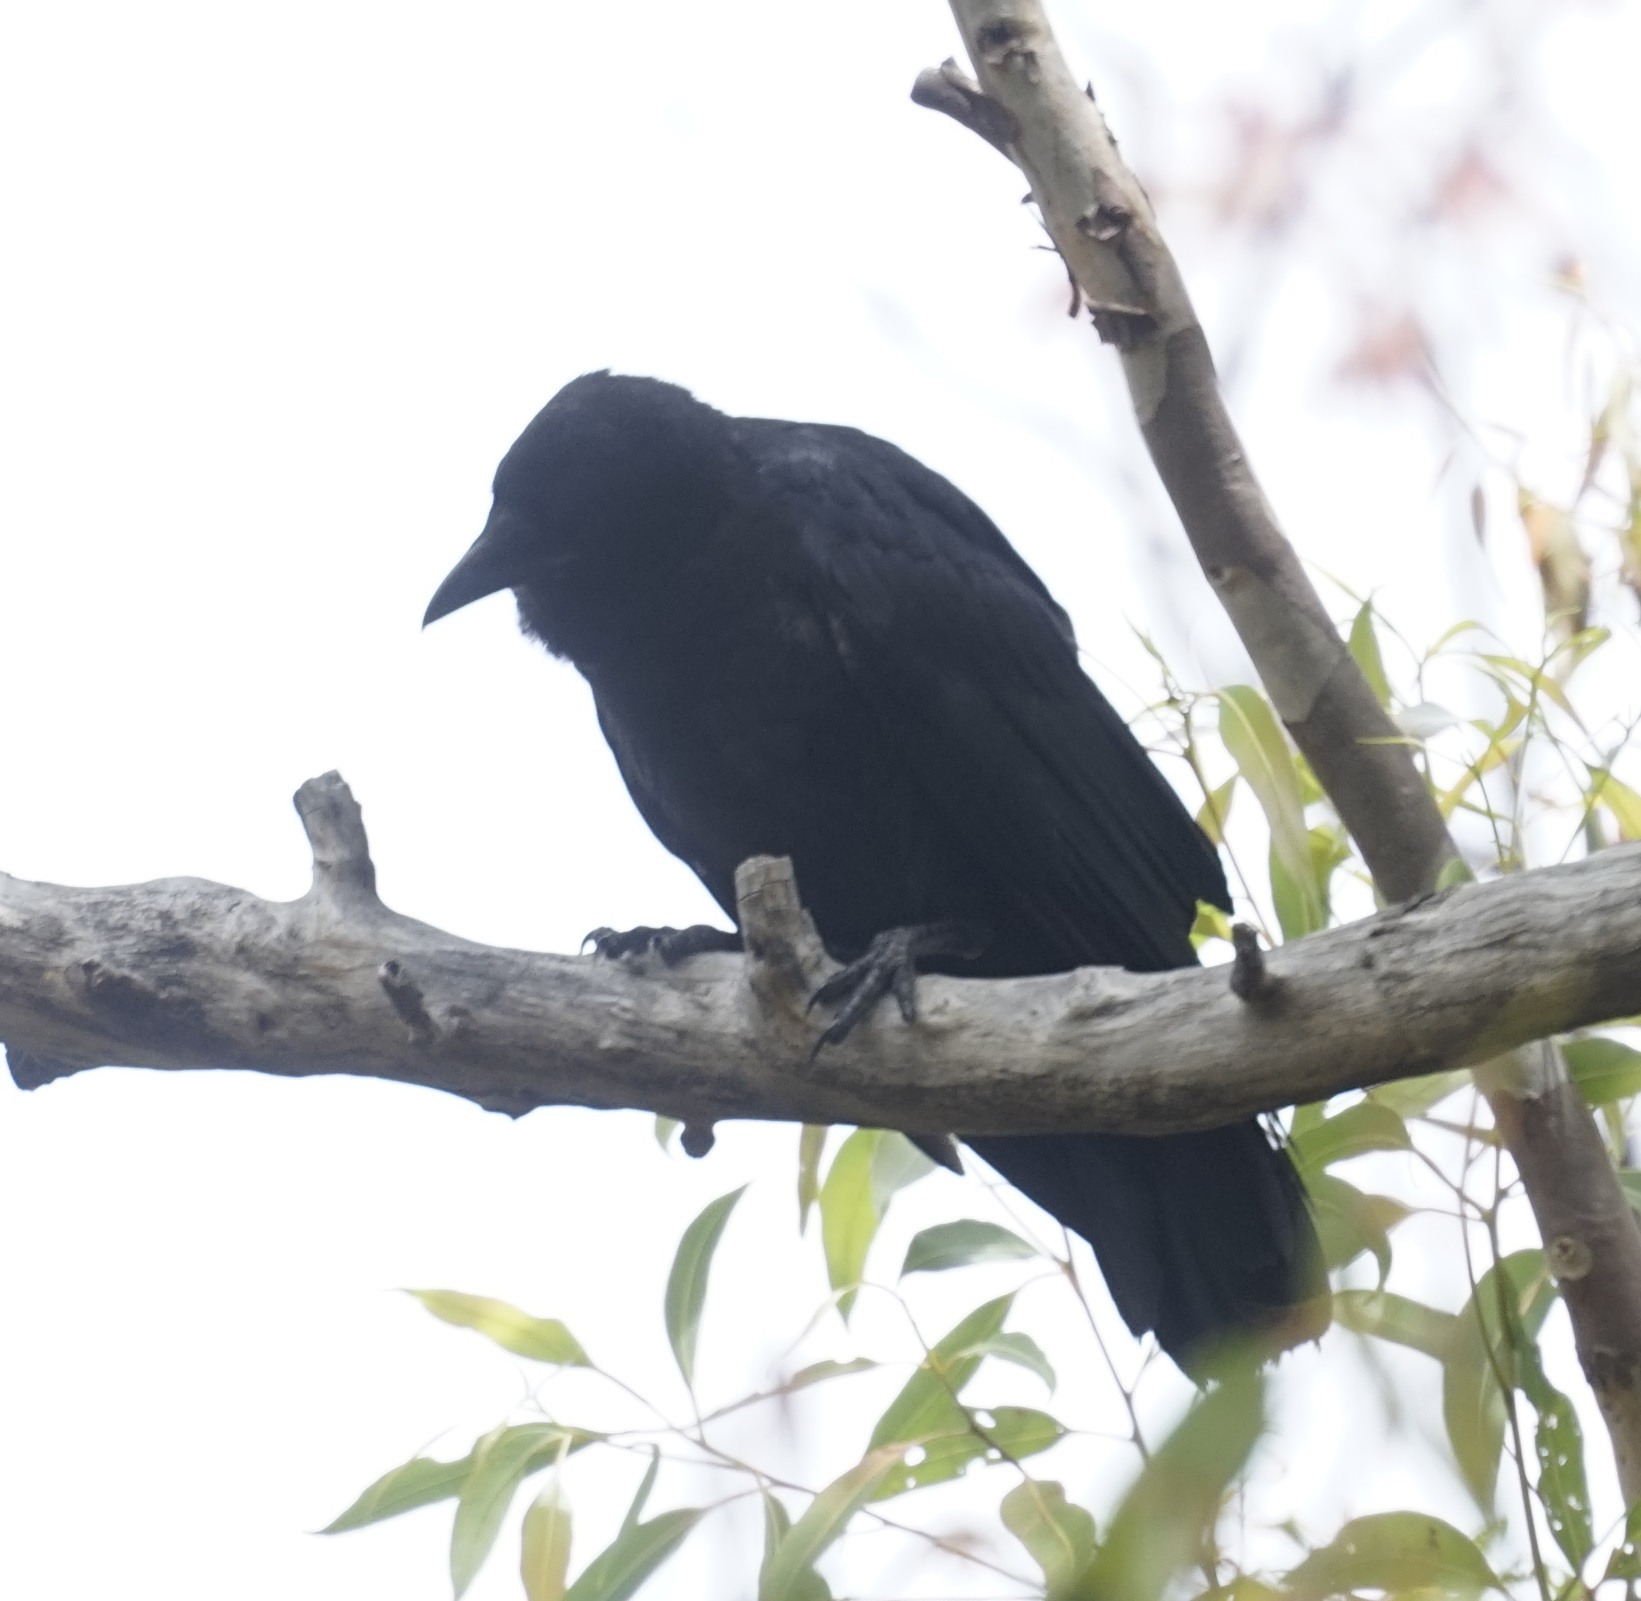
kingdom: Animalia
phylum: Chordata
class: Aves
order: Passeriformes
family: Corvidae
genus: Corvus
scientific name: Corvus coronoides
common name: Australian raven
